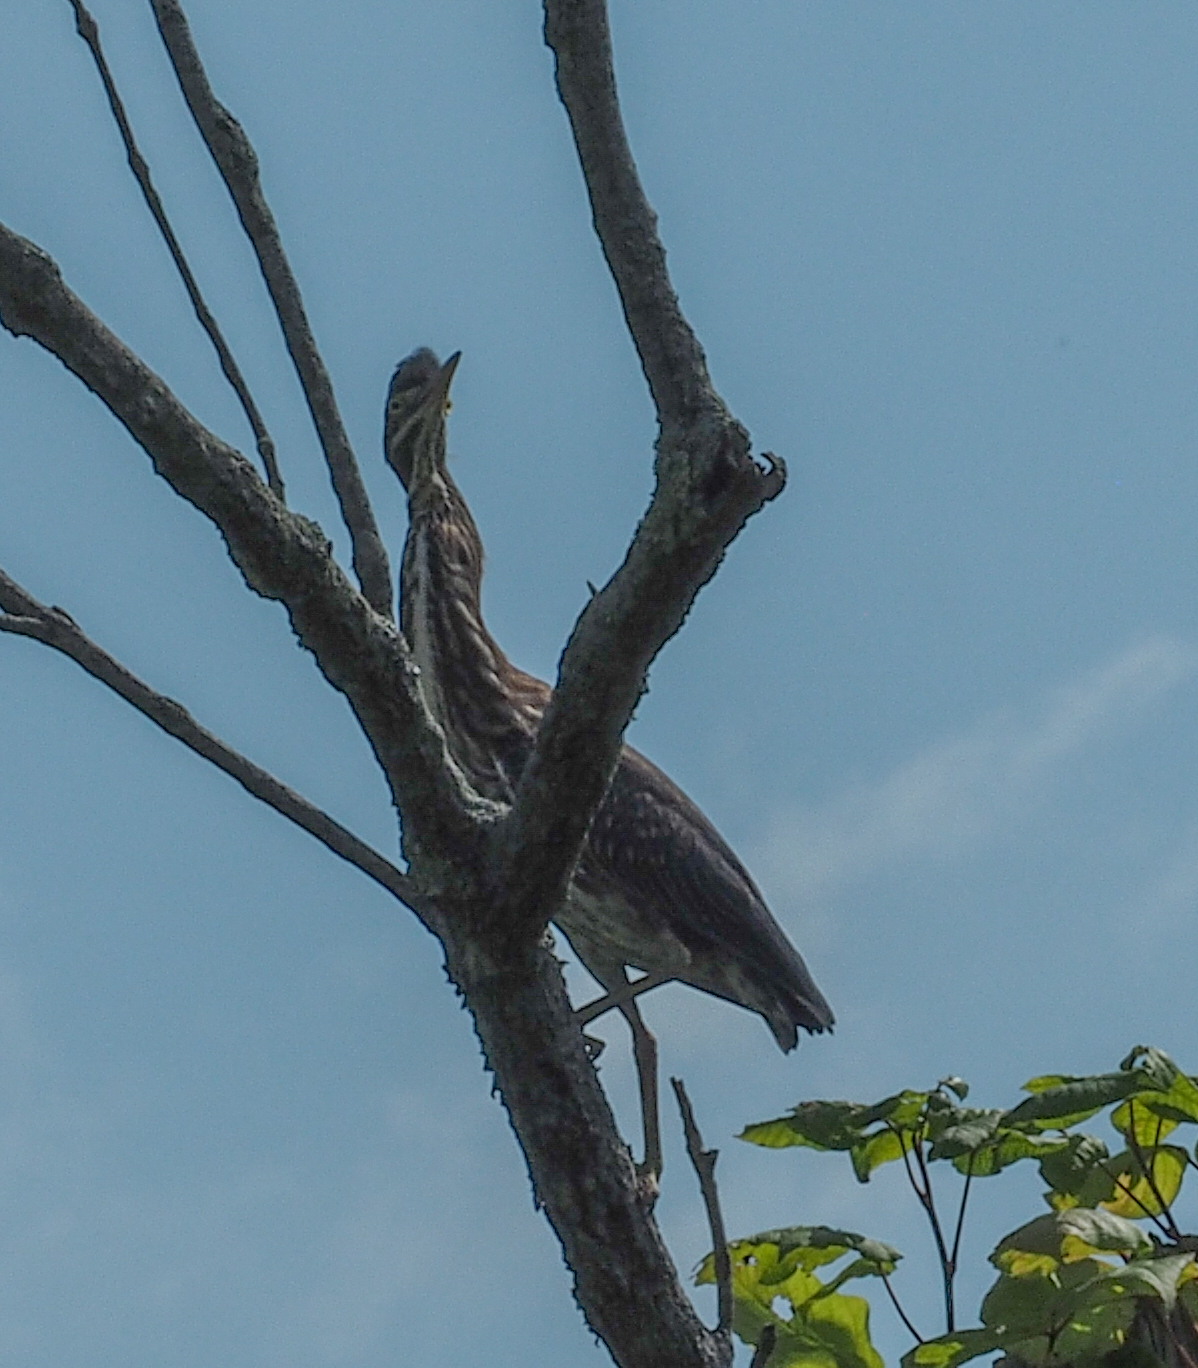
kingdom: Animalia
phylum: Chordata
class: Aves
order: Pelecaniformes
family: Ardeidae
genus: Butorides
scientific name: Butorides virescens
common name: Green heron
